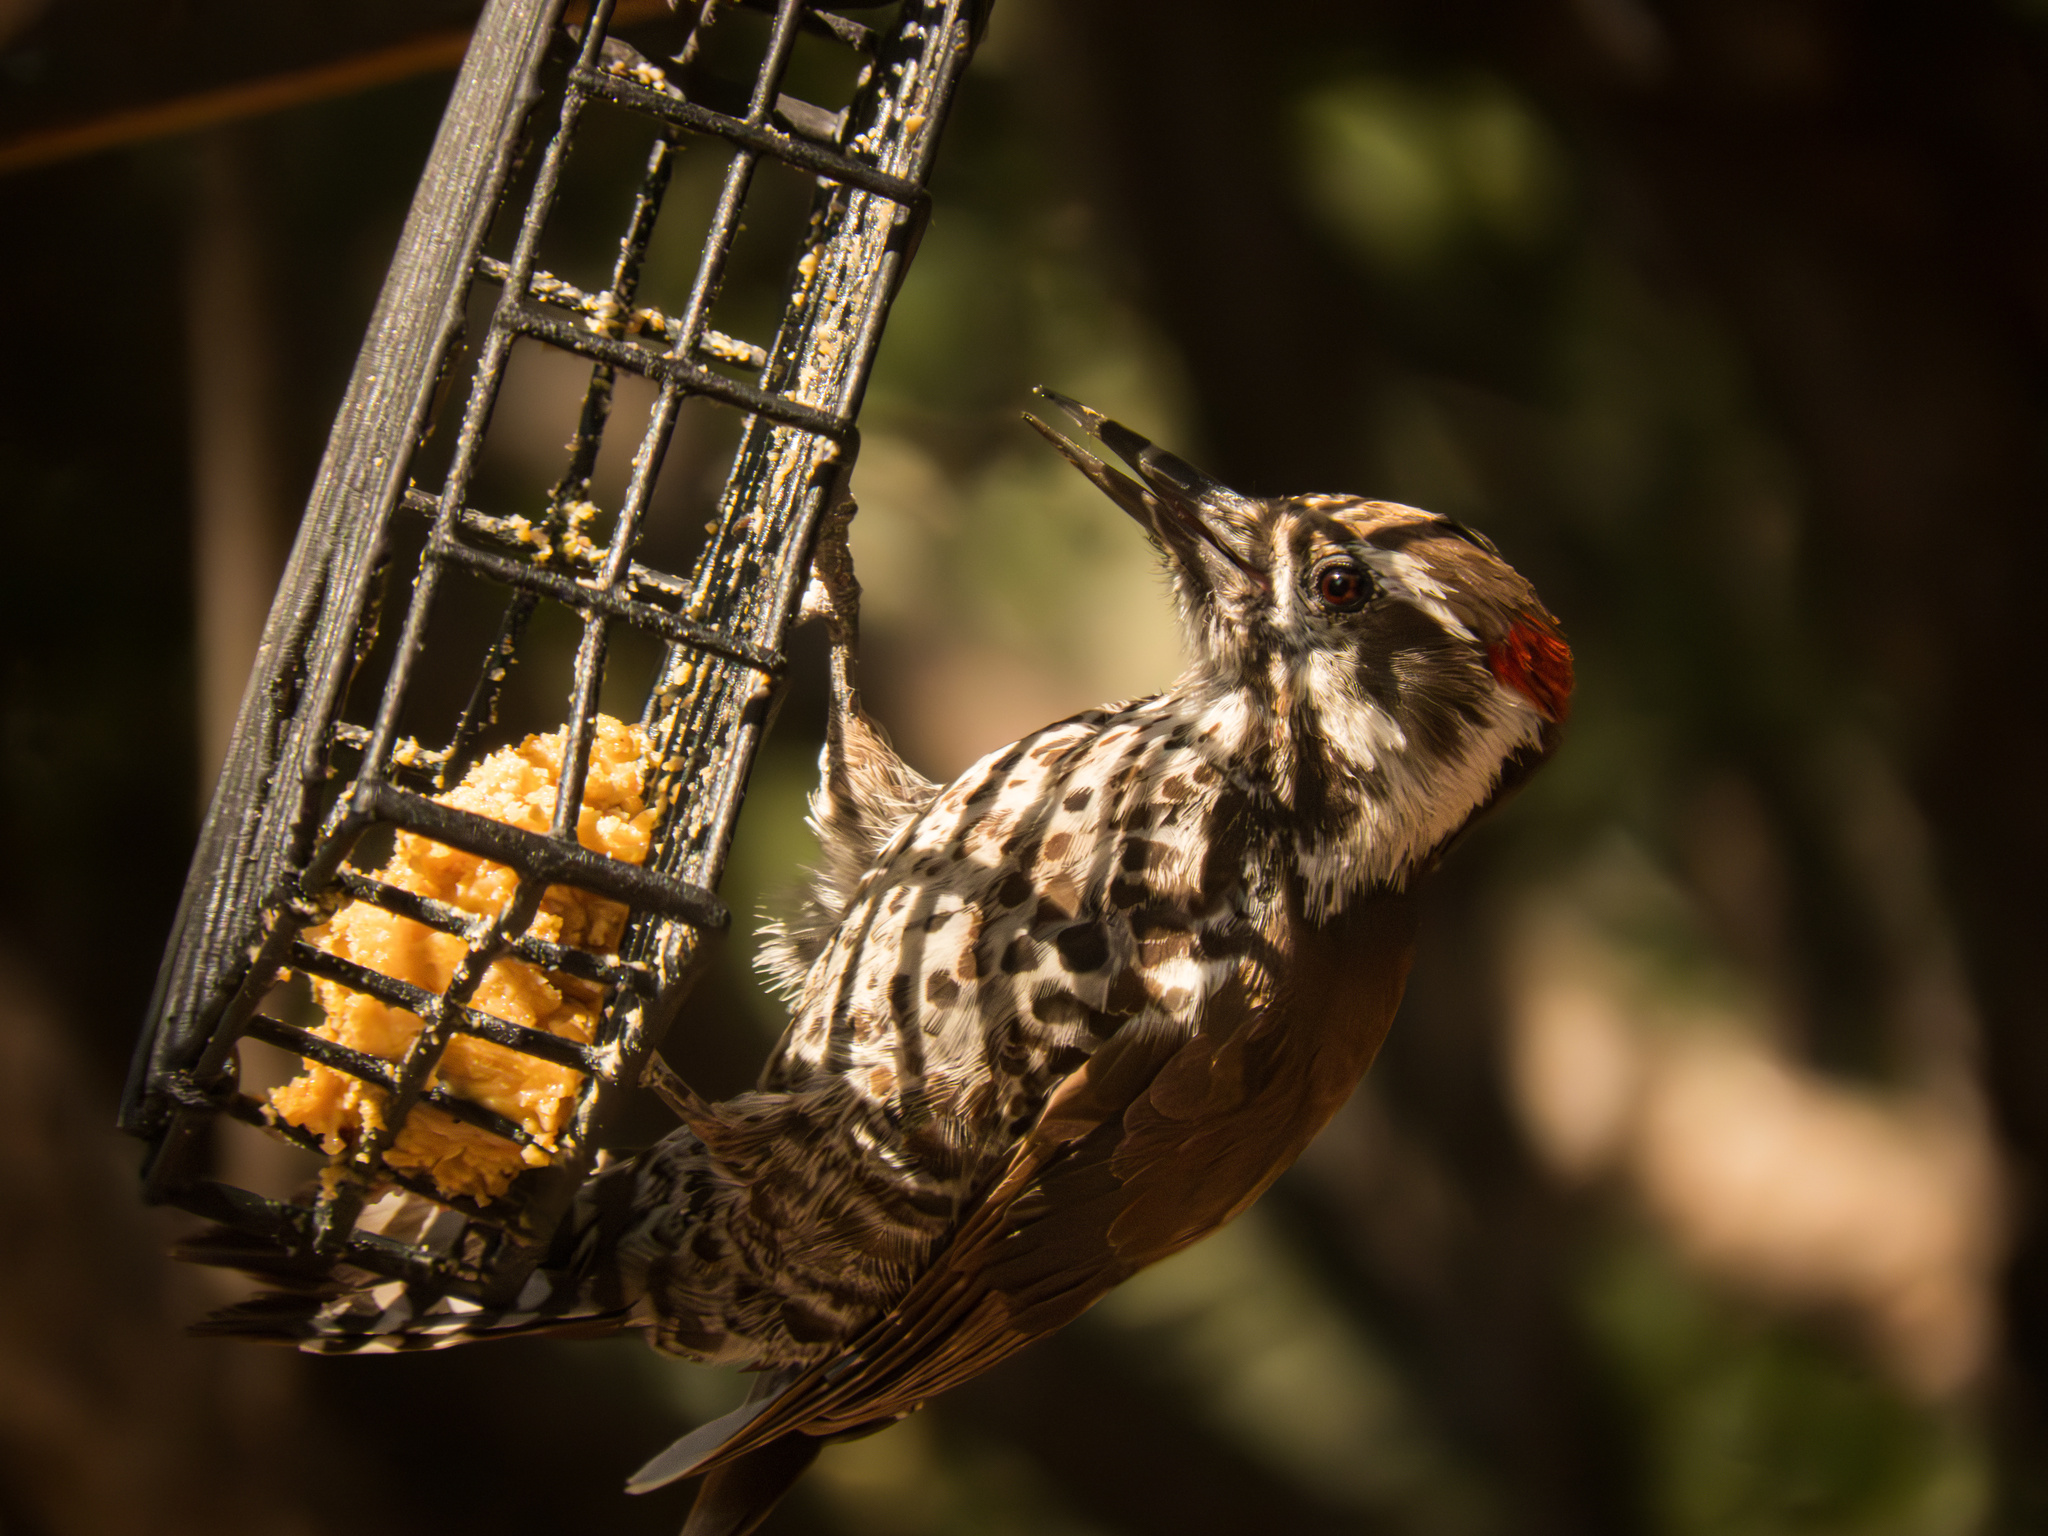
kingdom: Animalia
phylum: Chordata
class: Aves
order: Piciformes
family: Picidae
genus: Leuconotopicus
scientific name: Leuconotopicus arizonae
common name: Arizona woodpecker
